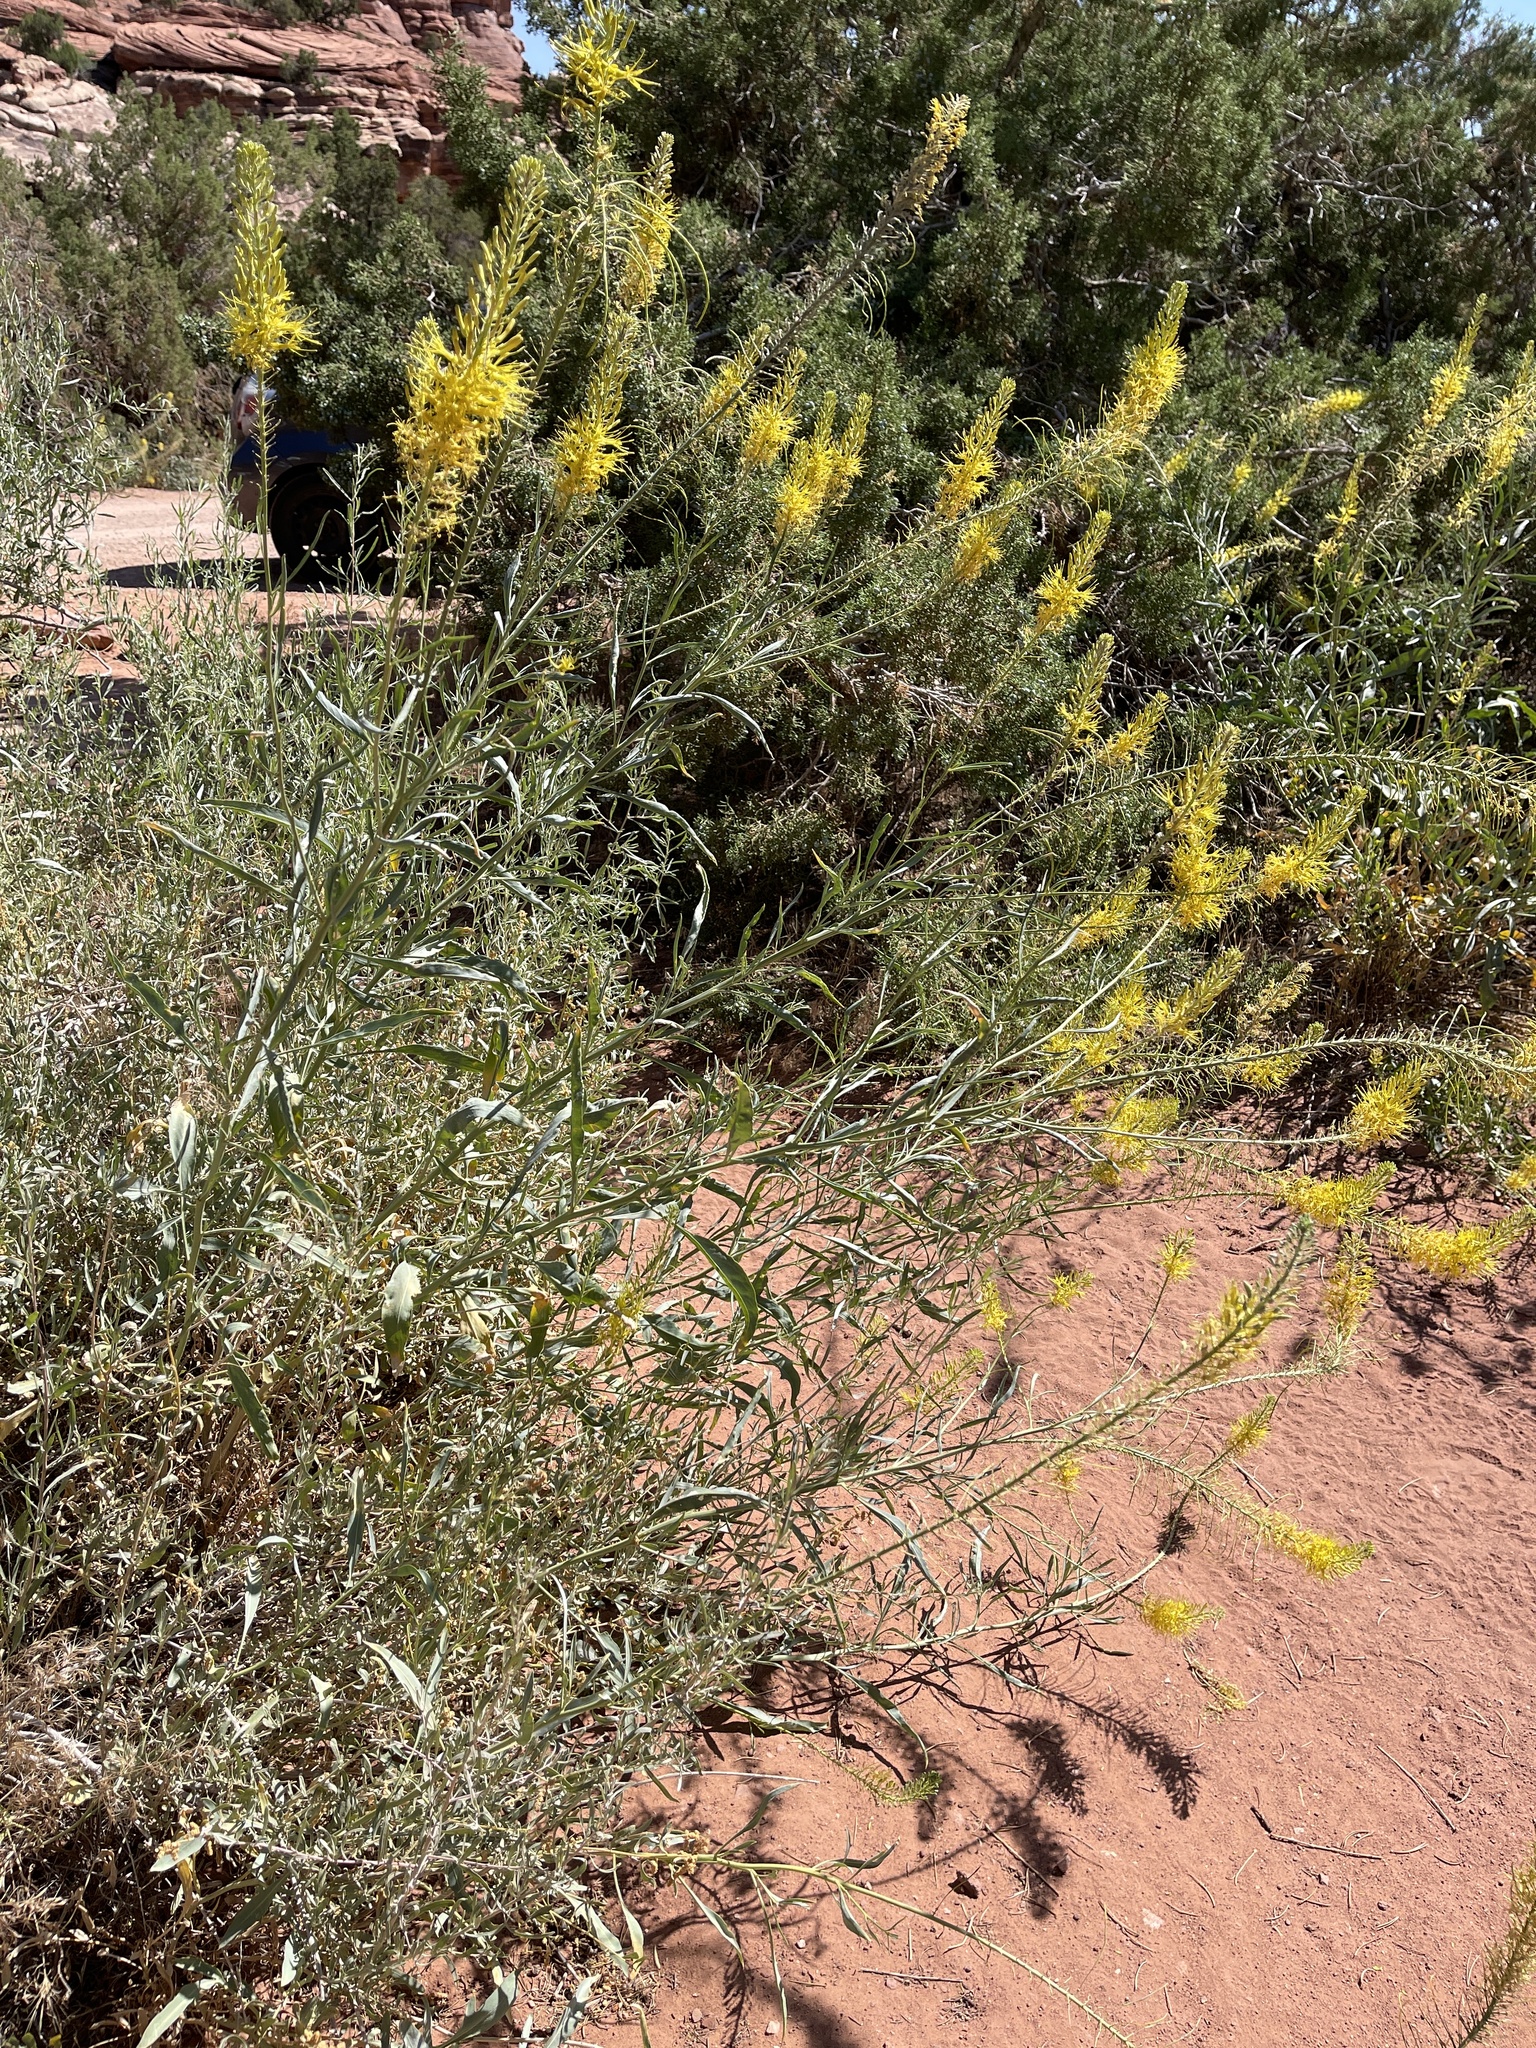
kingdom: Plantae
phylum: Tracheophyta
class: Magnoliopsida
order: Brassicales
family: Brassicaceae
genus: Stanleya
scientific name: Stanleya pinnata
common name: Prince's-plume
